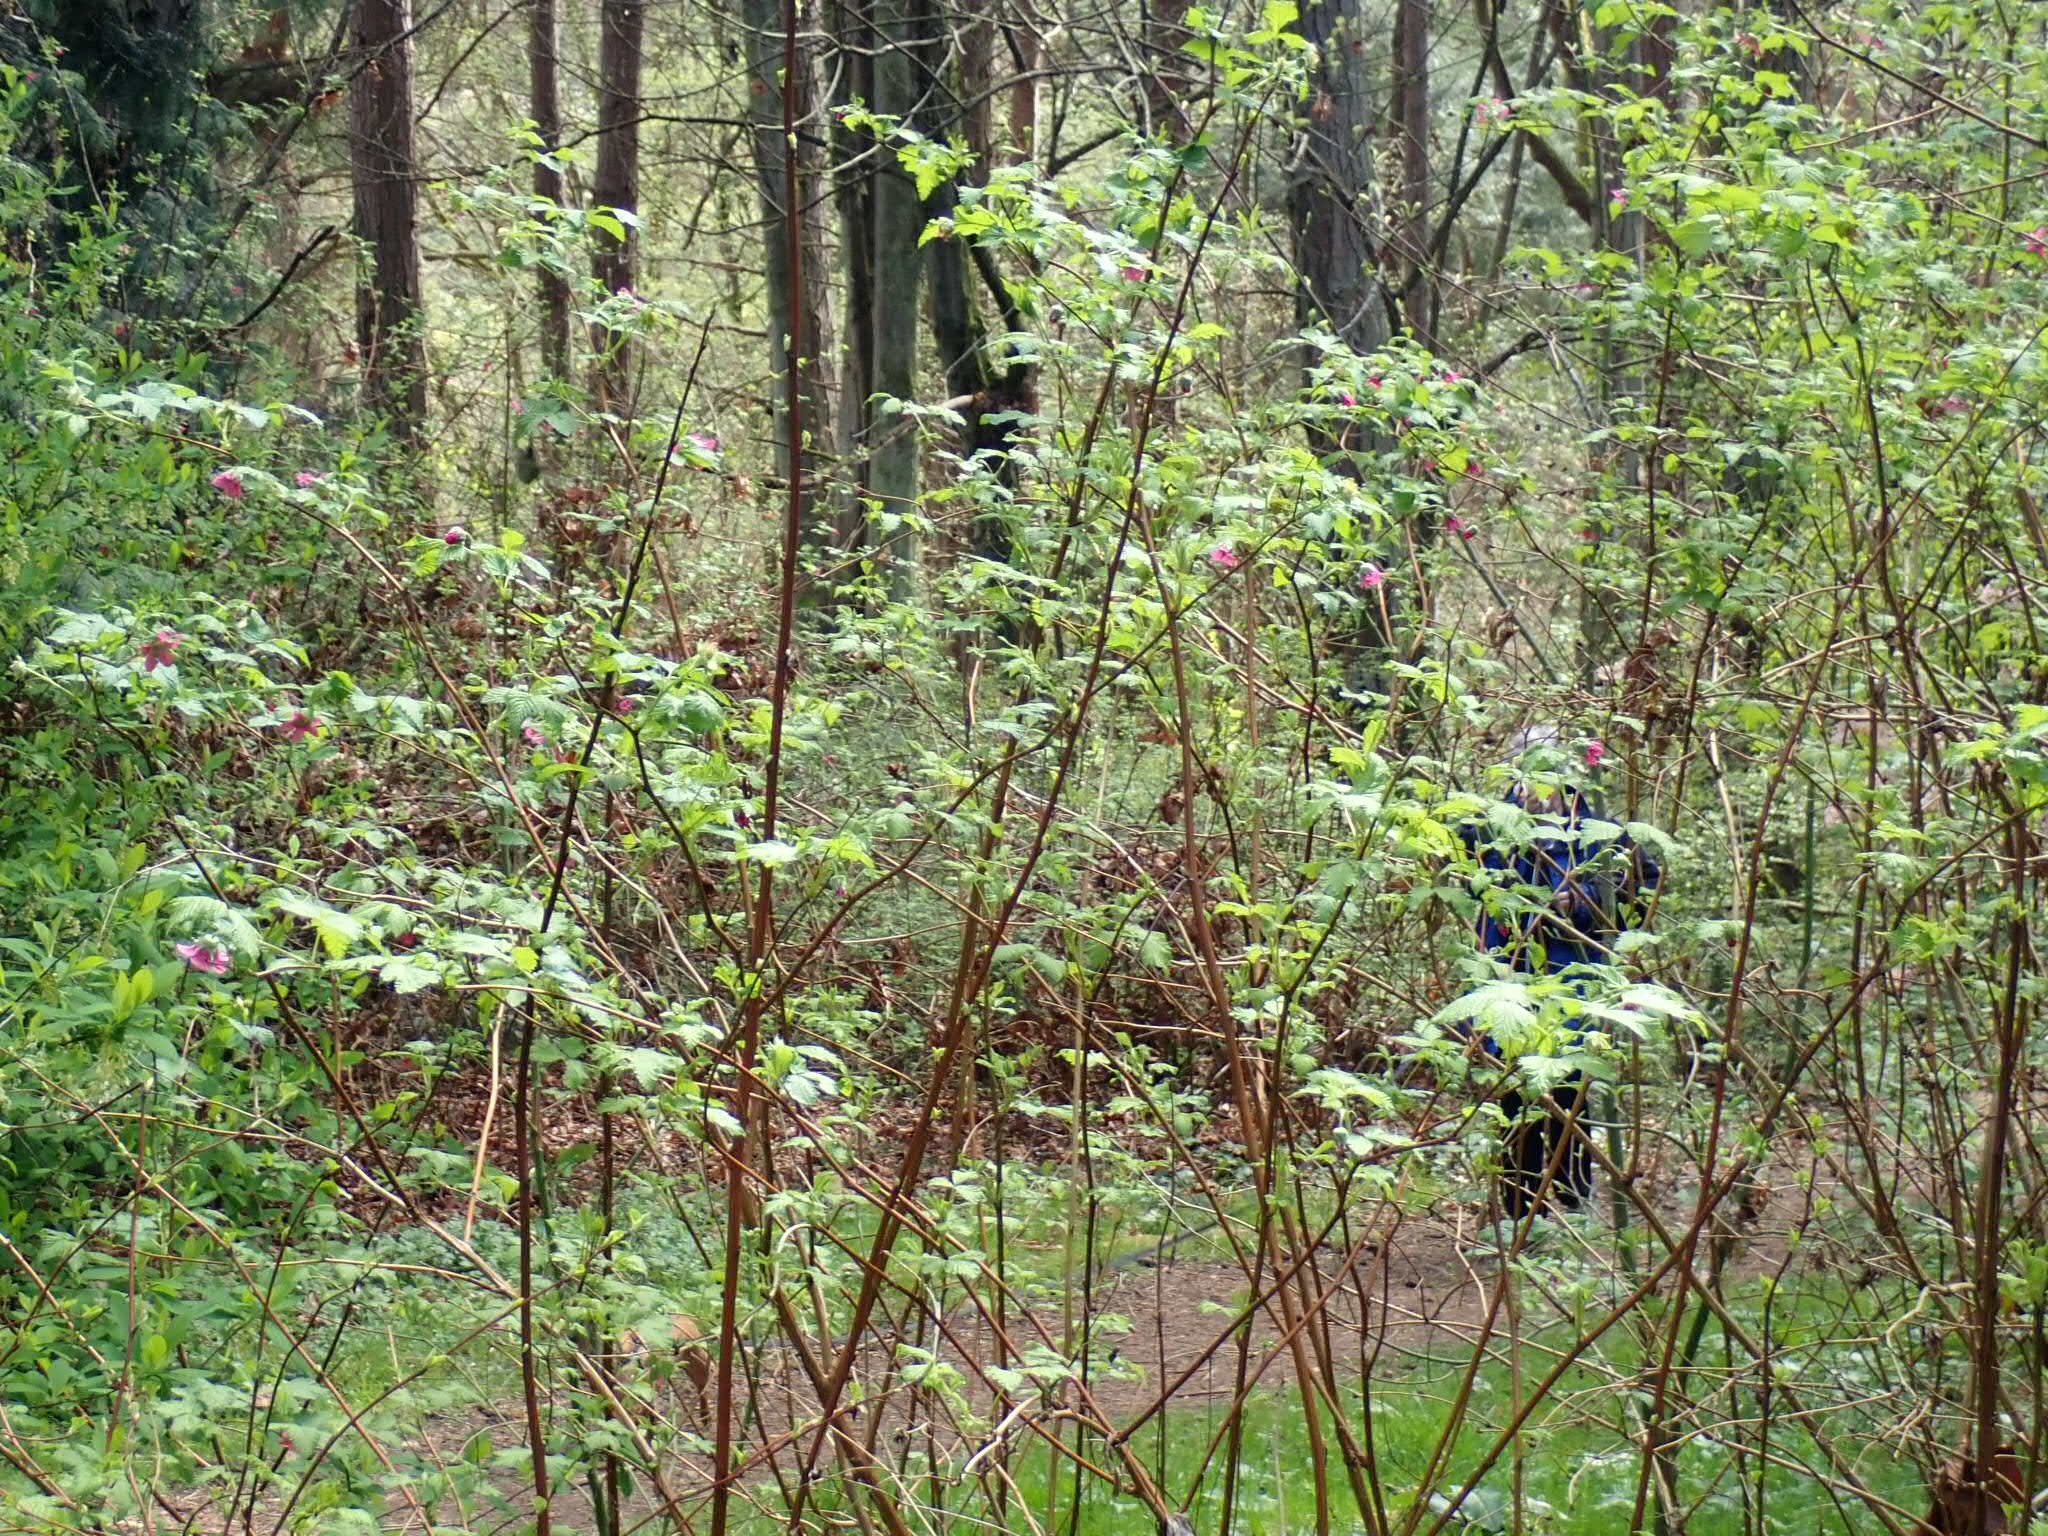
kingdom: Plantae
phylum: Tracheophyta
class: Magnoliopsida
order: Rosales
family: Rosaceae
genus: Rubus
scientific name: Rubus spectabilis
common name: Salmonberry
